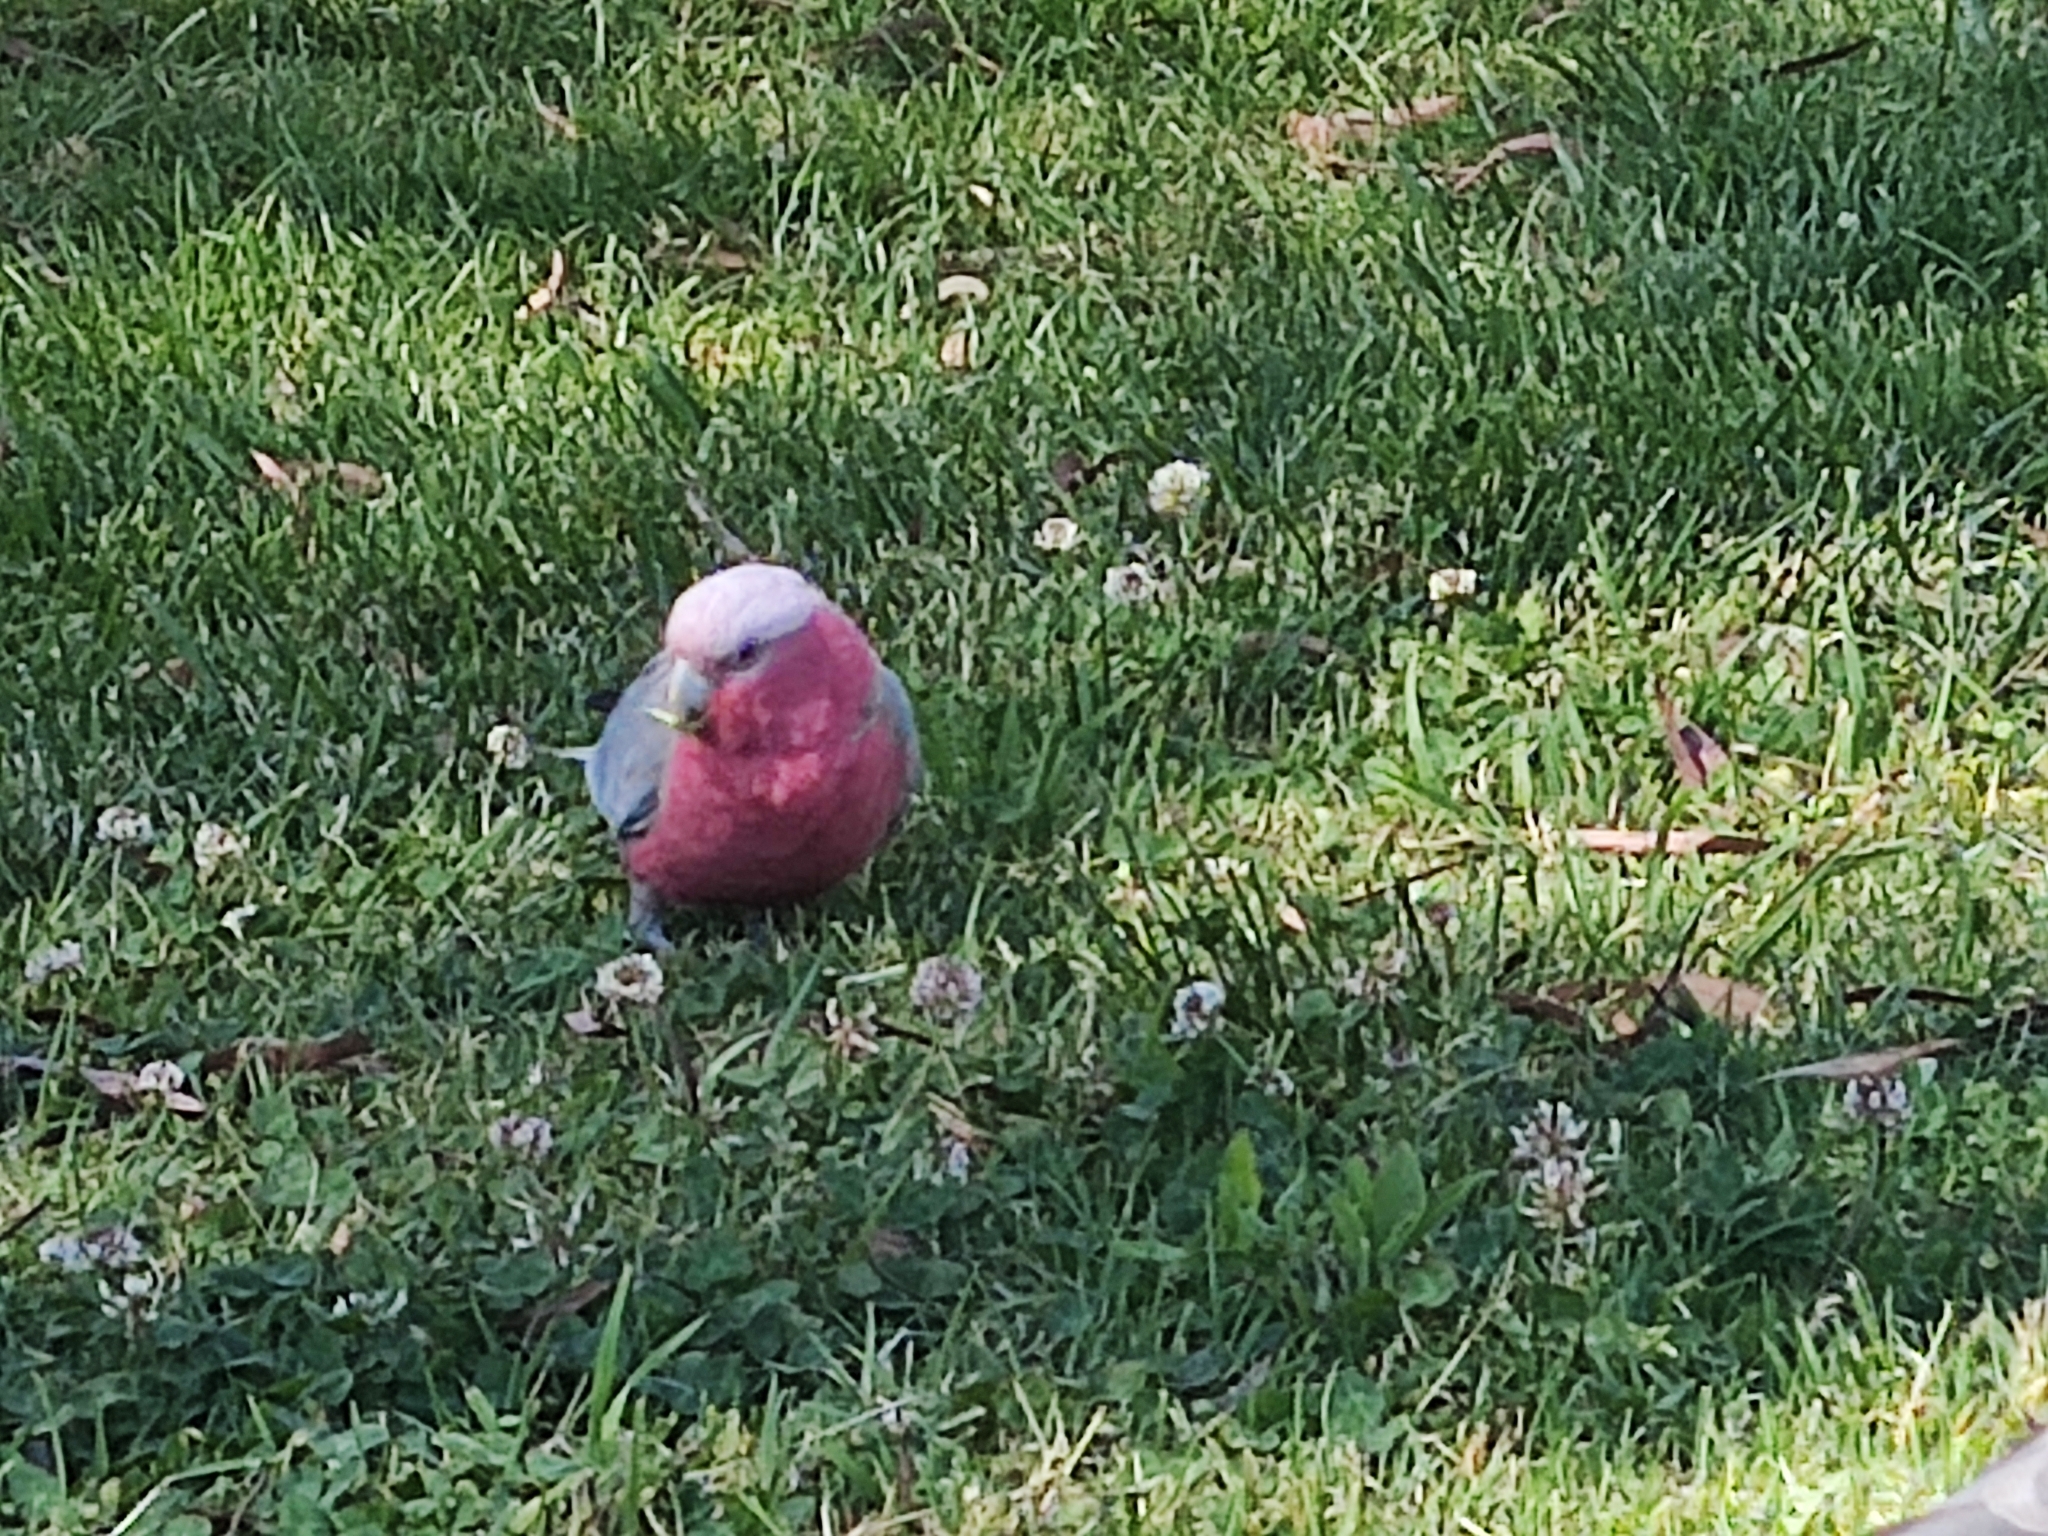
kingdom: Animalia
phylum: Chordata
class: Aves
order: Psittaciformes
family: Psittacidae
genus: Eolophus
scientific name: Eolophus roseicapilla
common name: Galah
